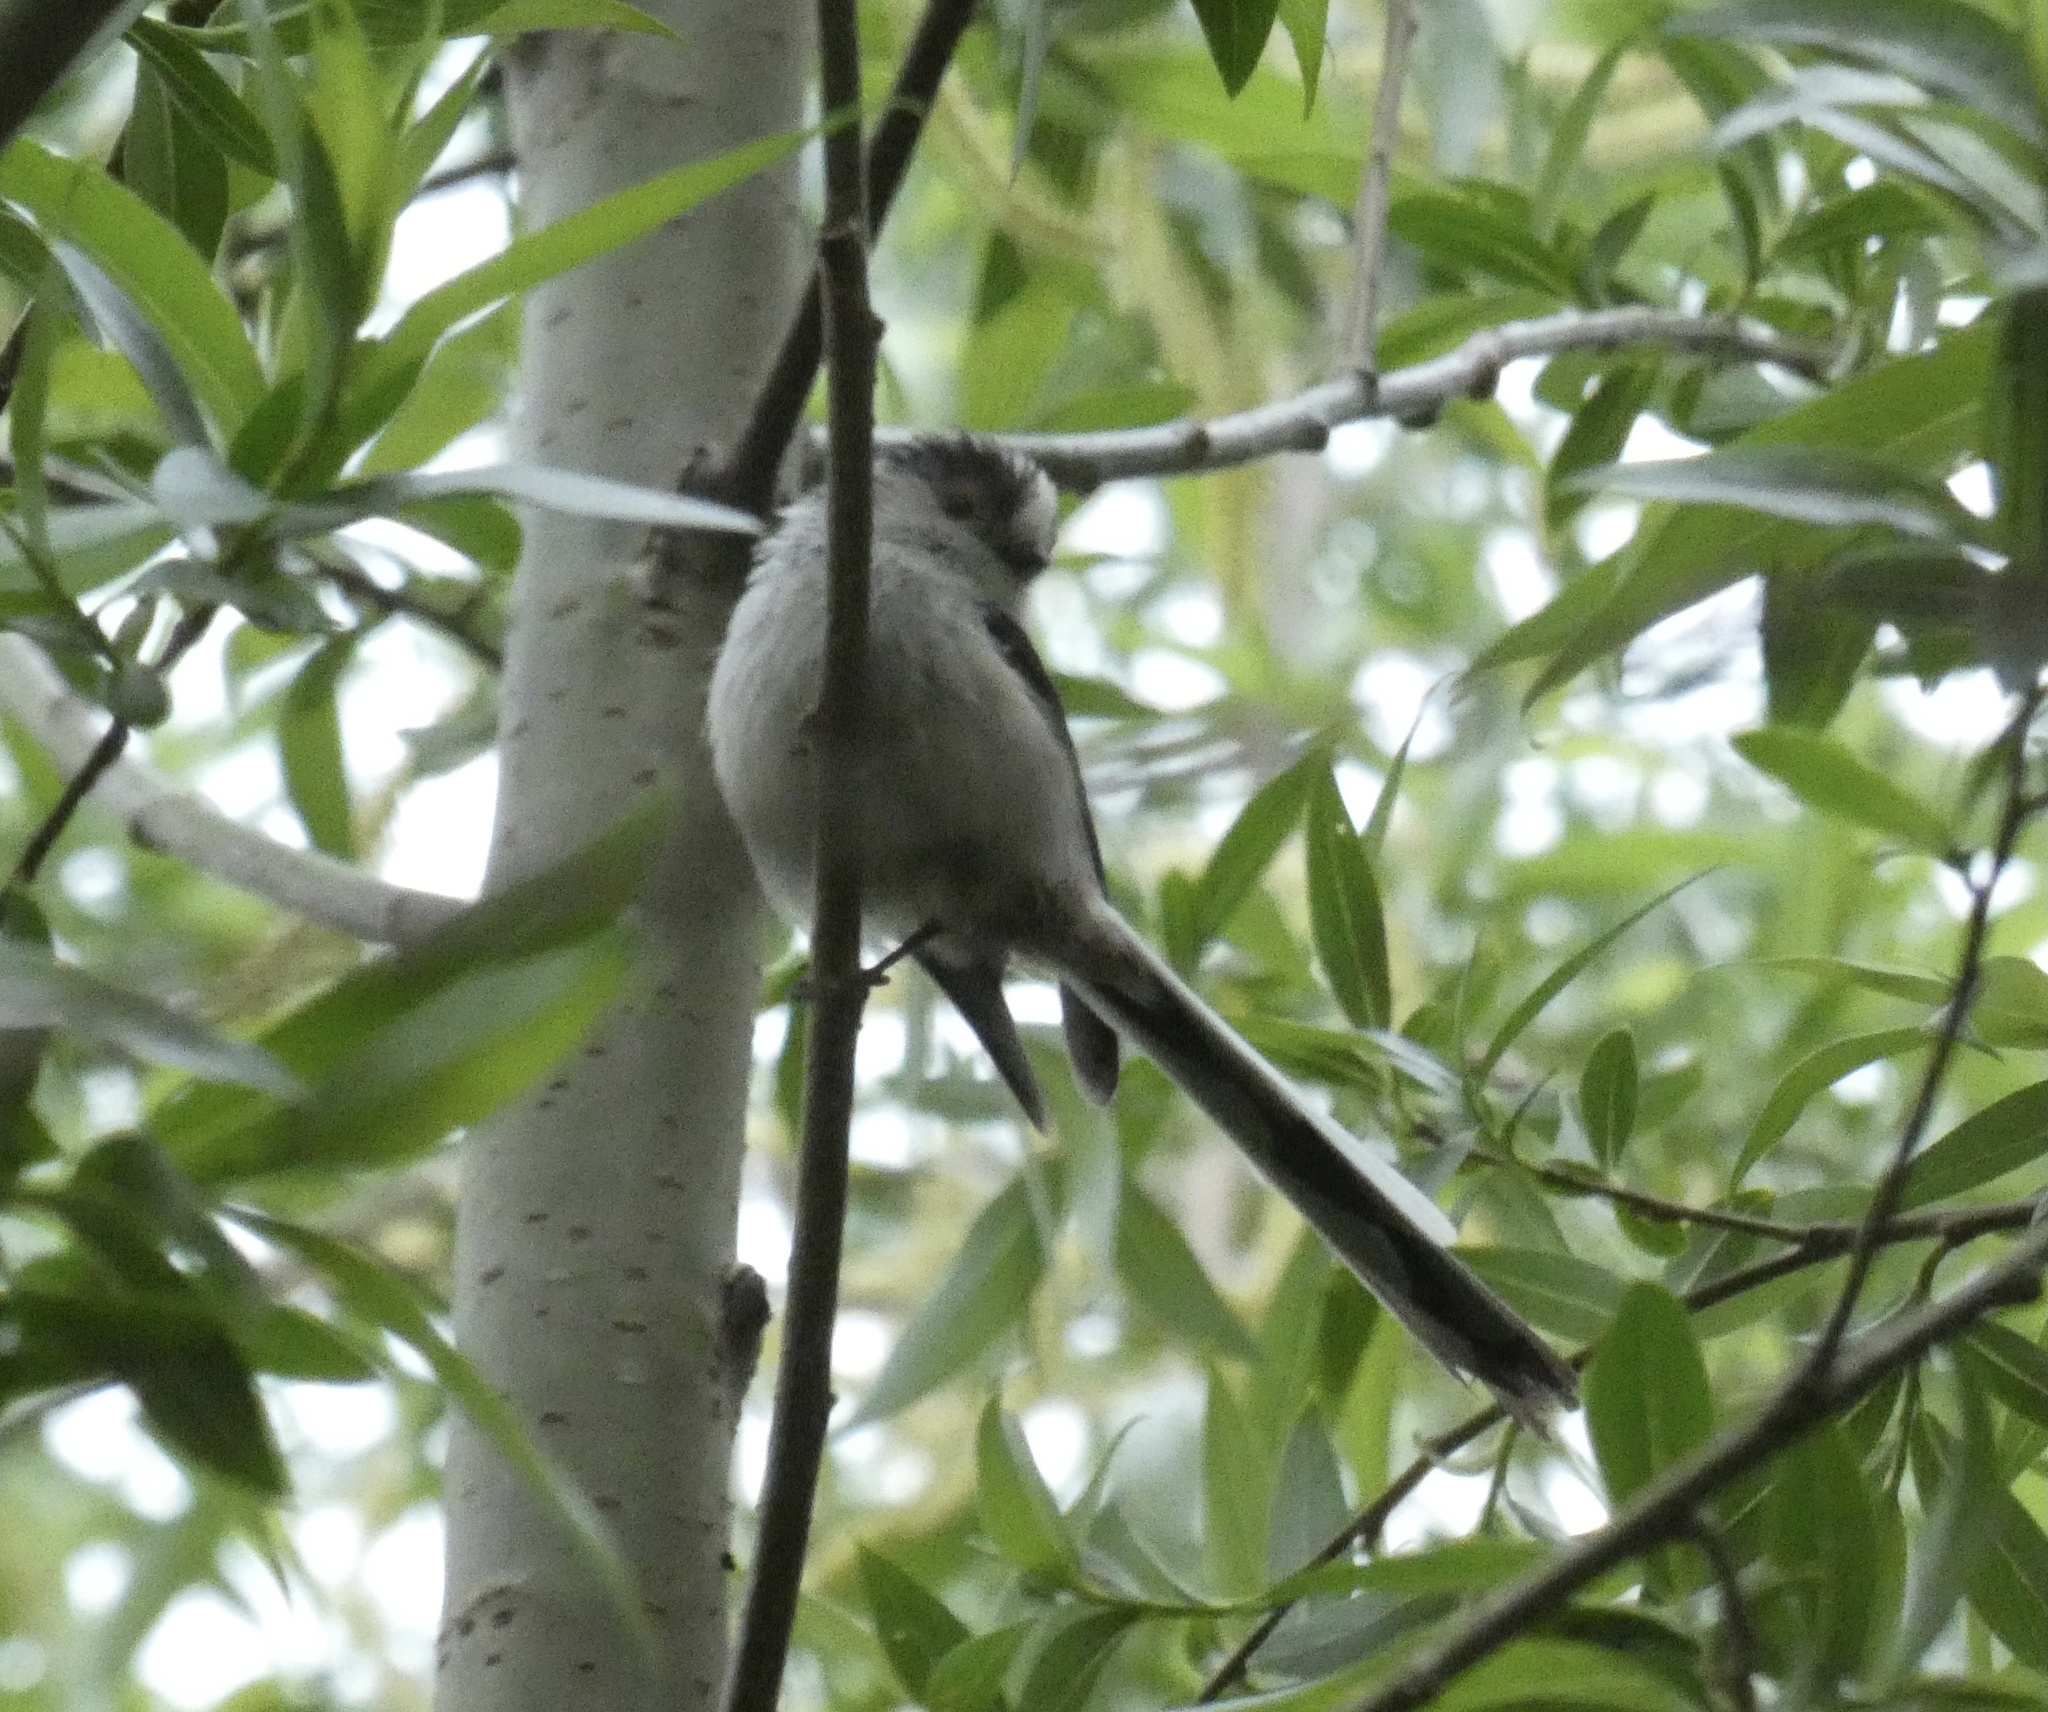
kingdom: Animalia
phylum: Chordata
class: Aves
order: Passeriformes
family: Aegithalidae
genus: Aegithalos
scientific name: Aegithalos caudatus
